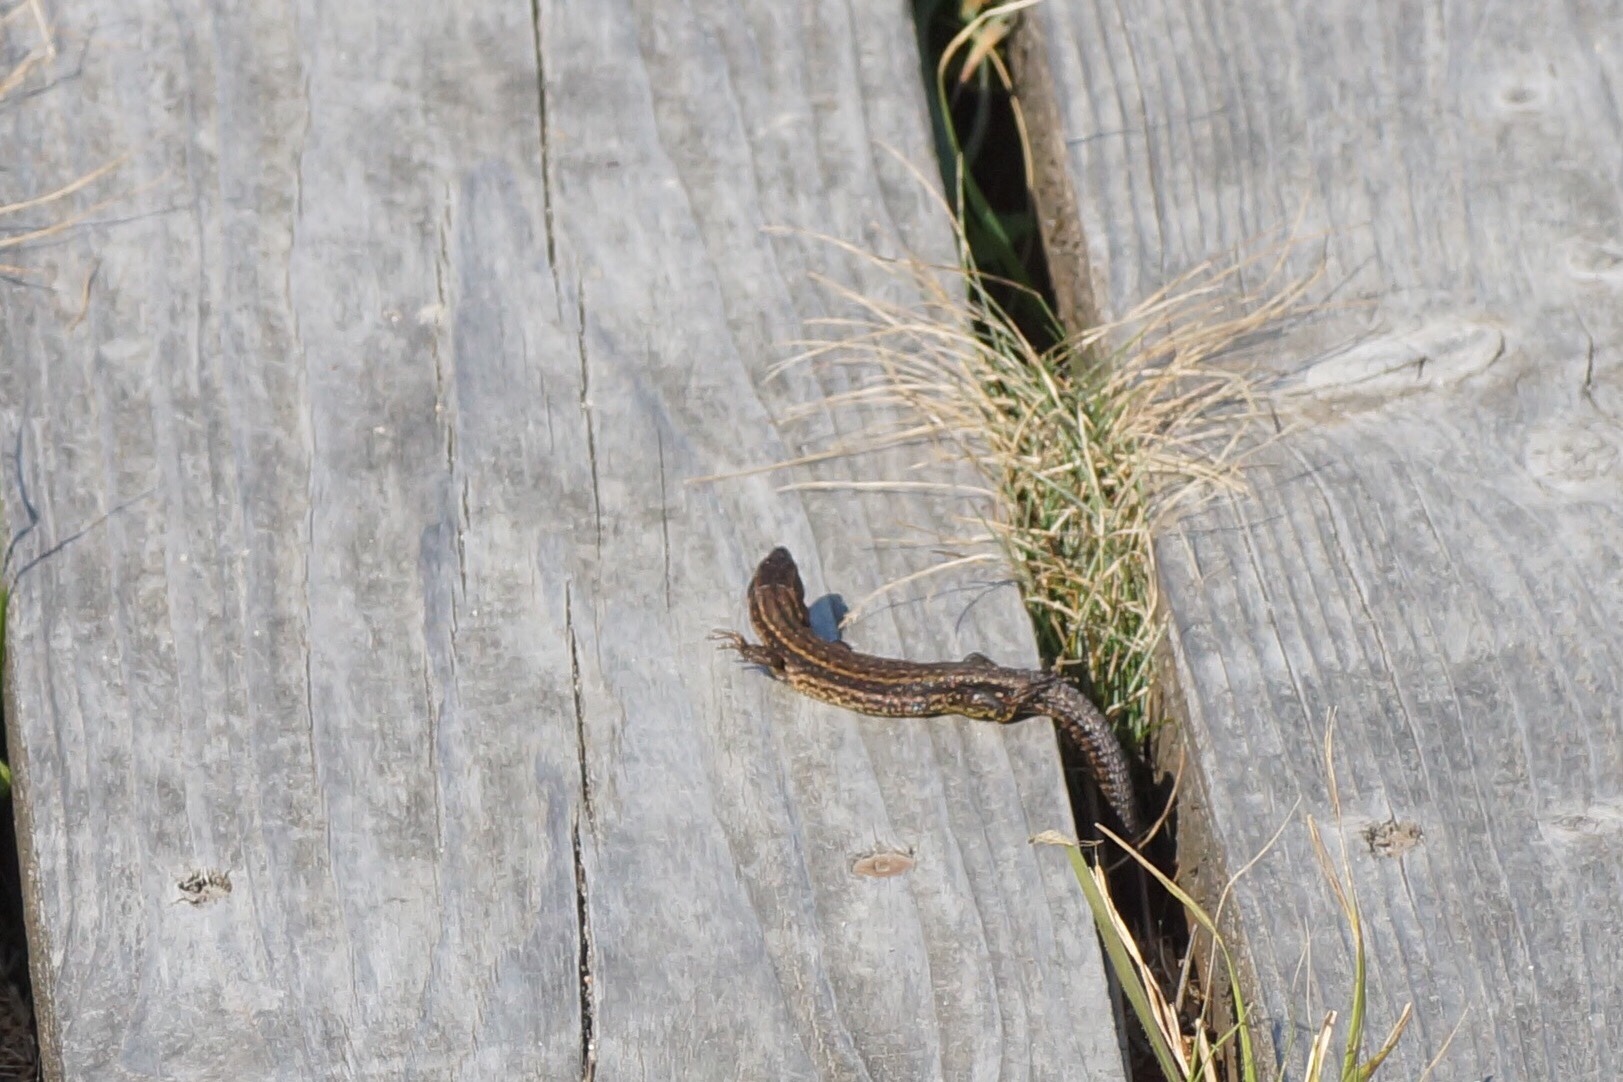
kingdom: Animalia
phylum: Chordata
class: Squamata
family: Lacertidae
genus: Zootoca
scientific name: Zootoca vivipara
